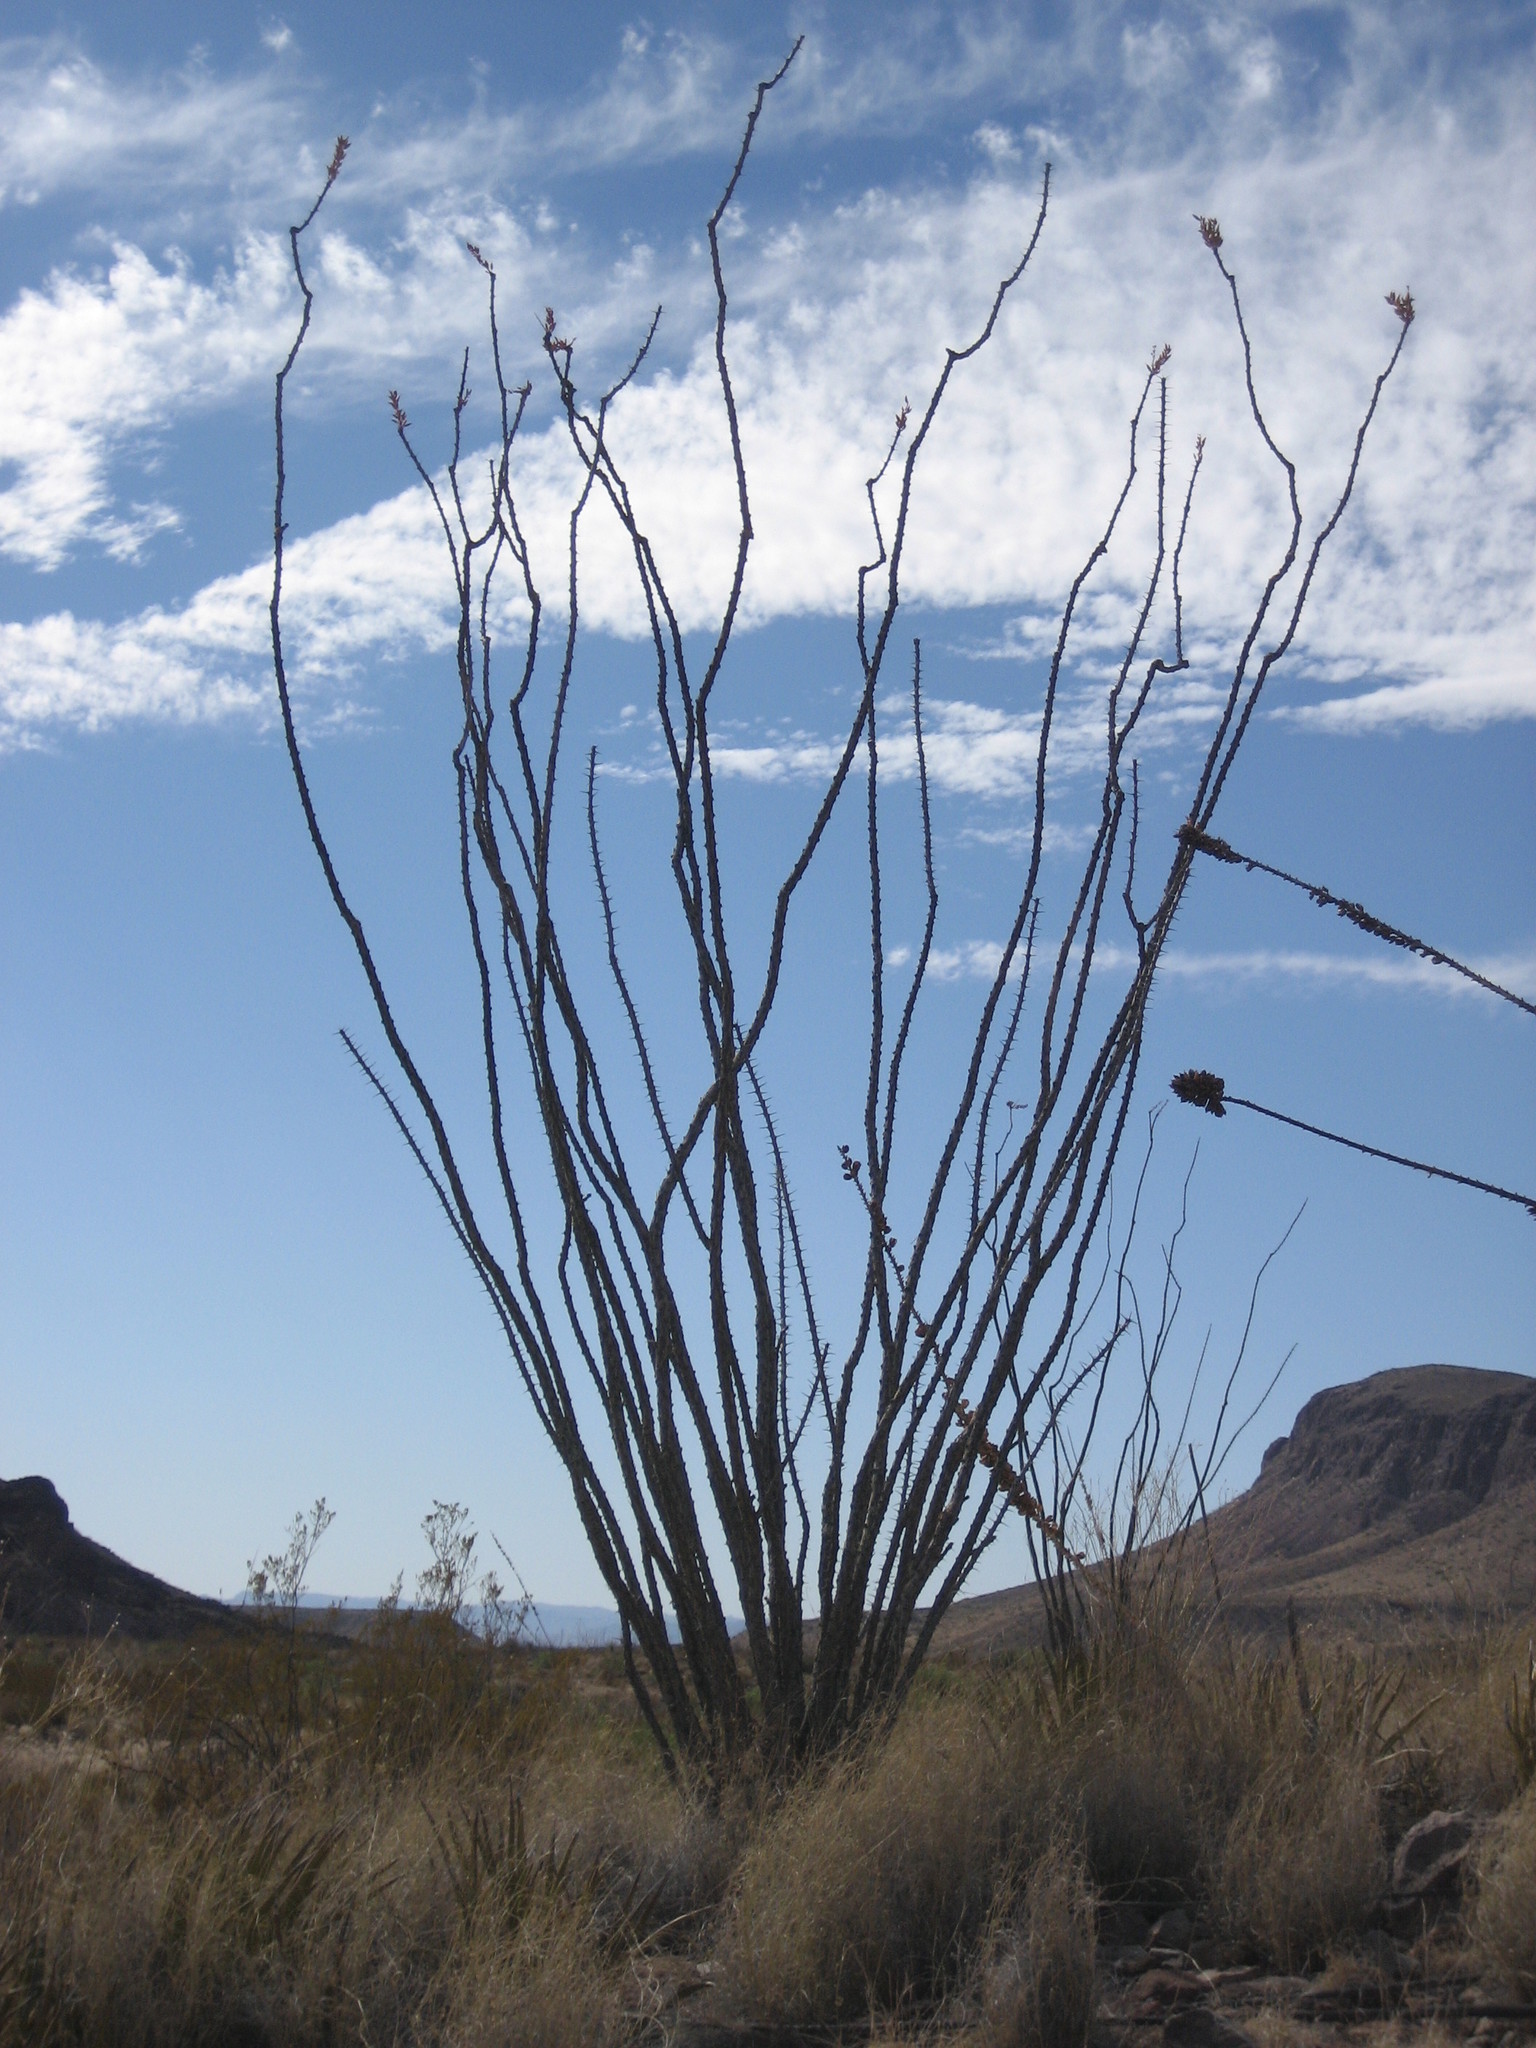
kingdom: Plantae
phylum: Tracheophyta
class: Magnoliopsida
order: Ericales
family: Fouquieriaceae
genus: Fouquieria
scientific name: Fouquieria splendens
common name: Vine-cactus
